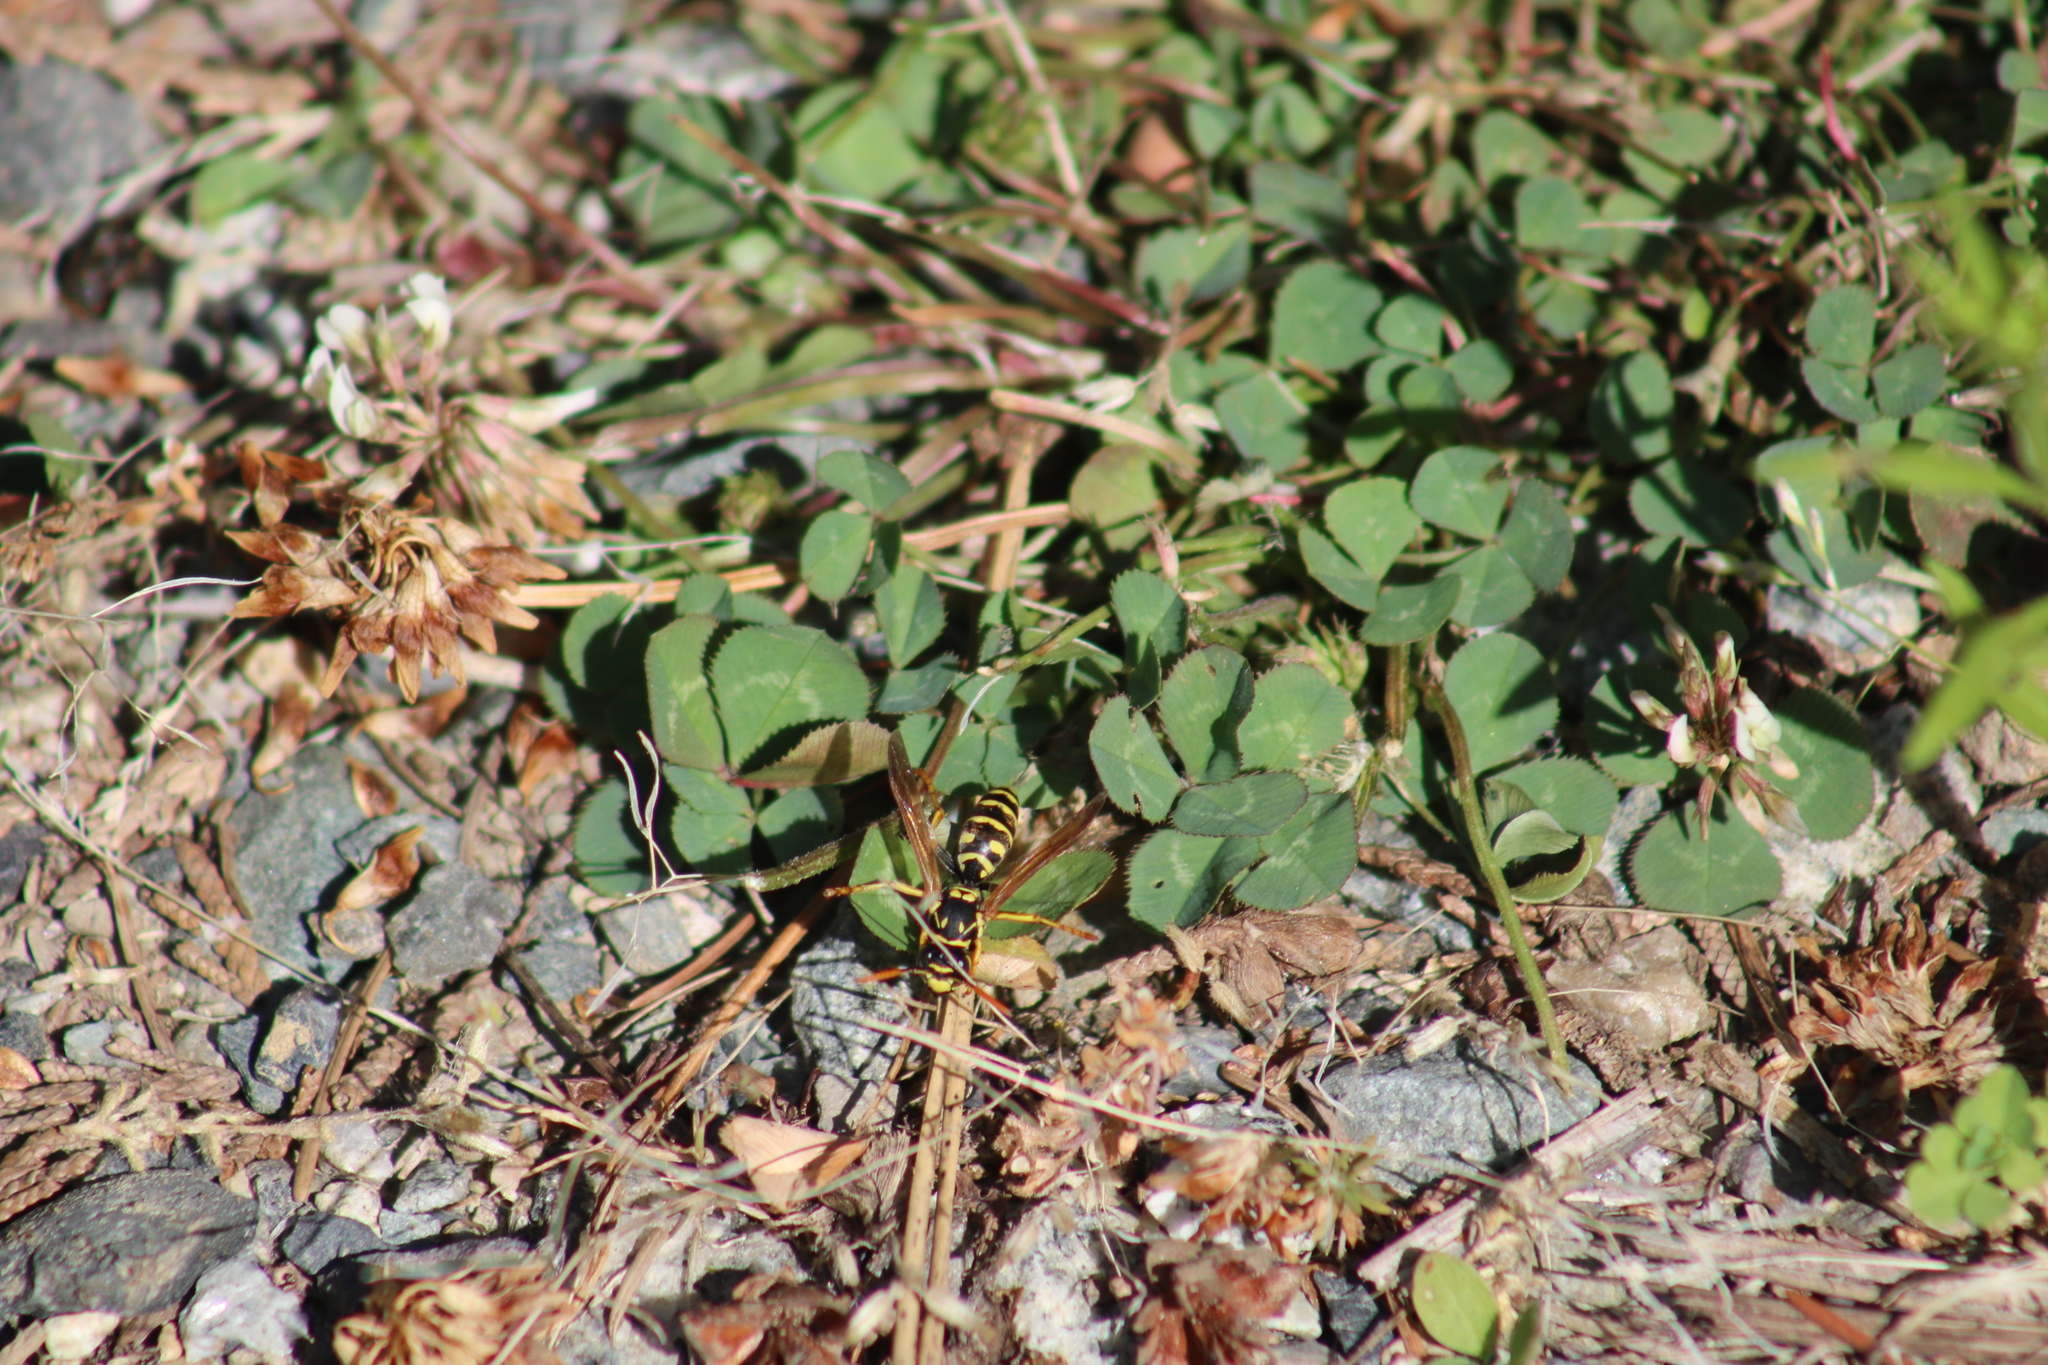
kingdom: Animalia
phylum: Arthropoda
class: Insecta
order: Hymenoptera
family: Eumenidae
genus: Polistes
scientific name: Polistes dominula
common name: Paper wasp
